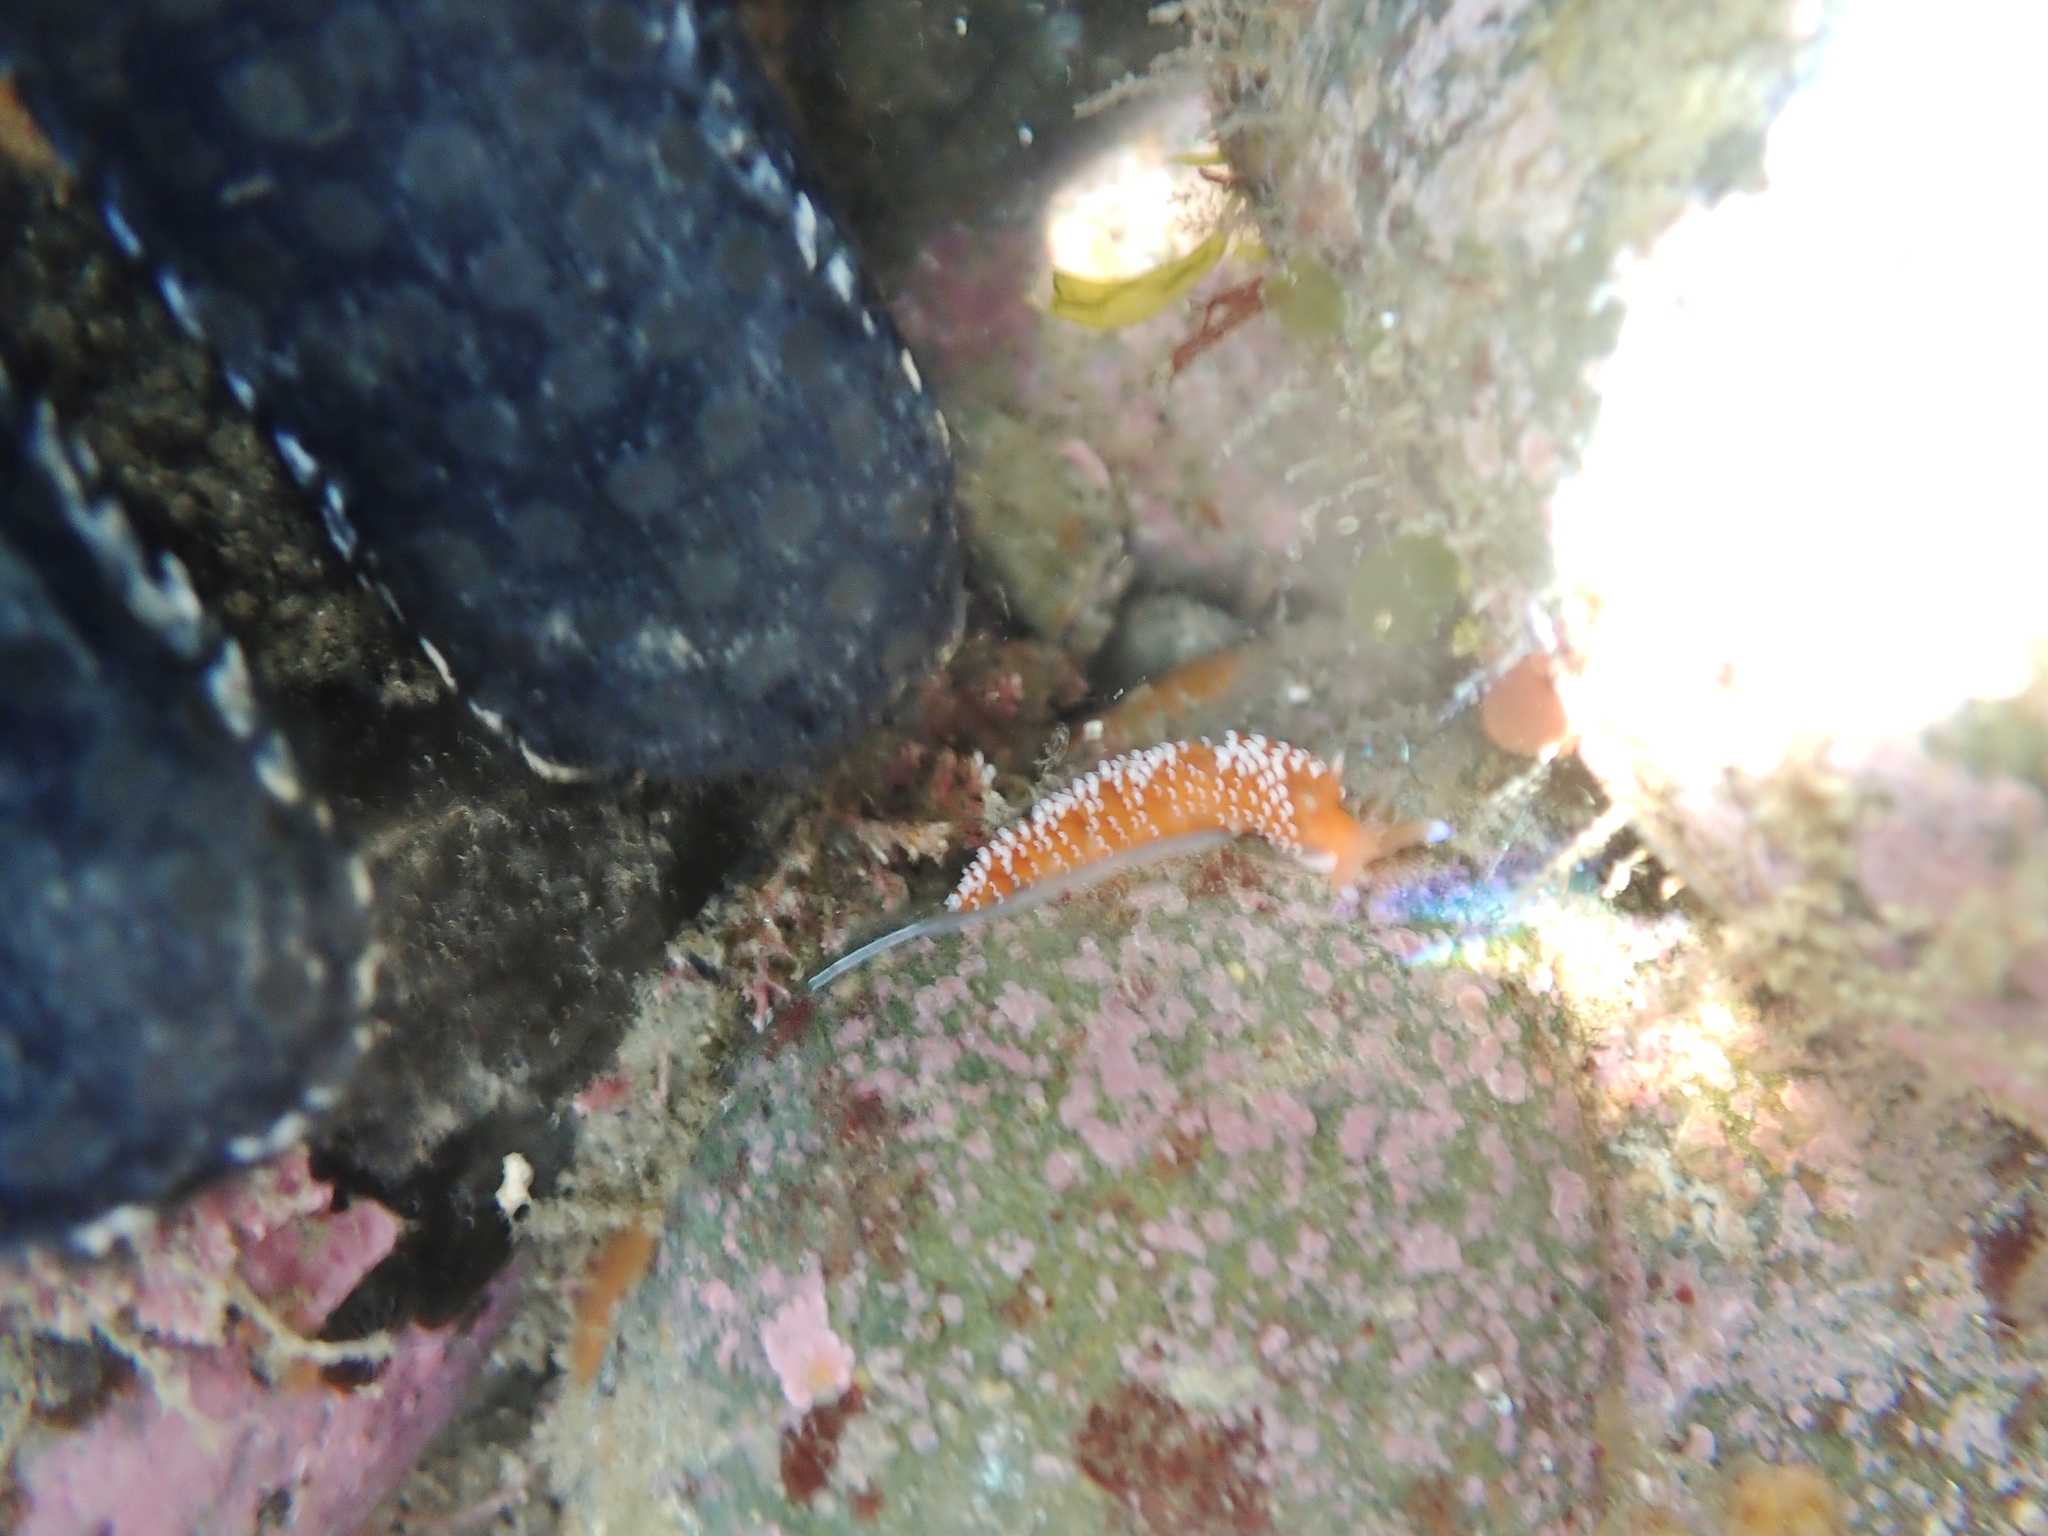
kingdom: Animalia
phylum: Mollusca
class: Gastropoda
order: Nudibranchia
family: Facelinidae
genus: Phidiana
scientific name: Phidiana milleri
